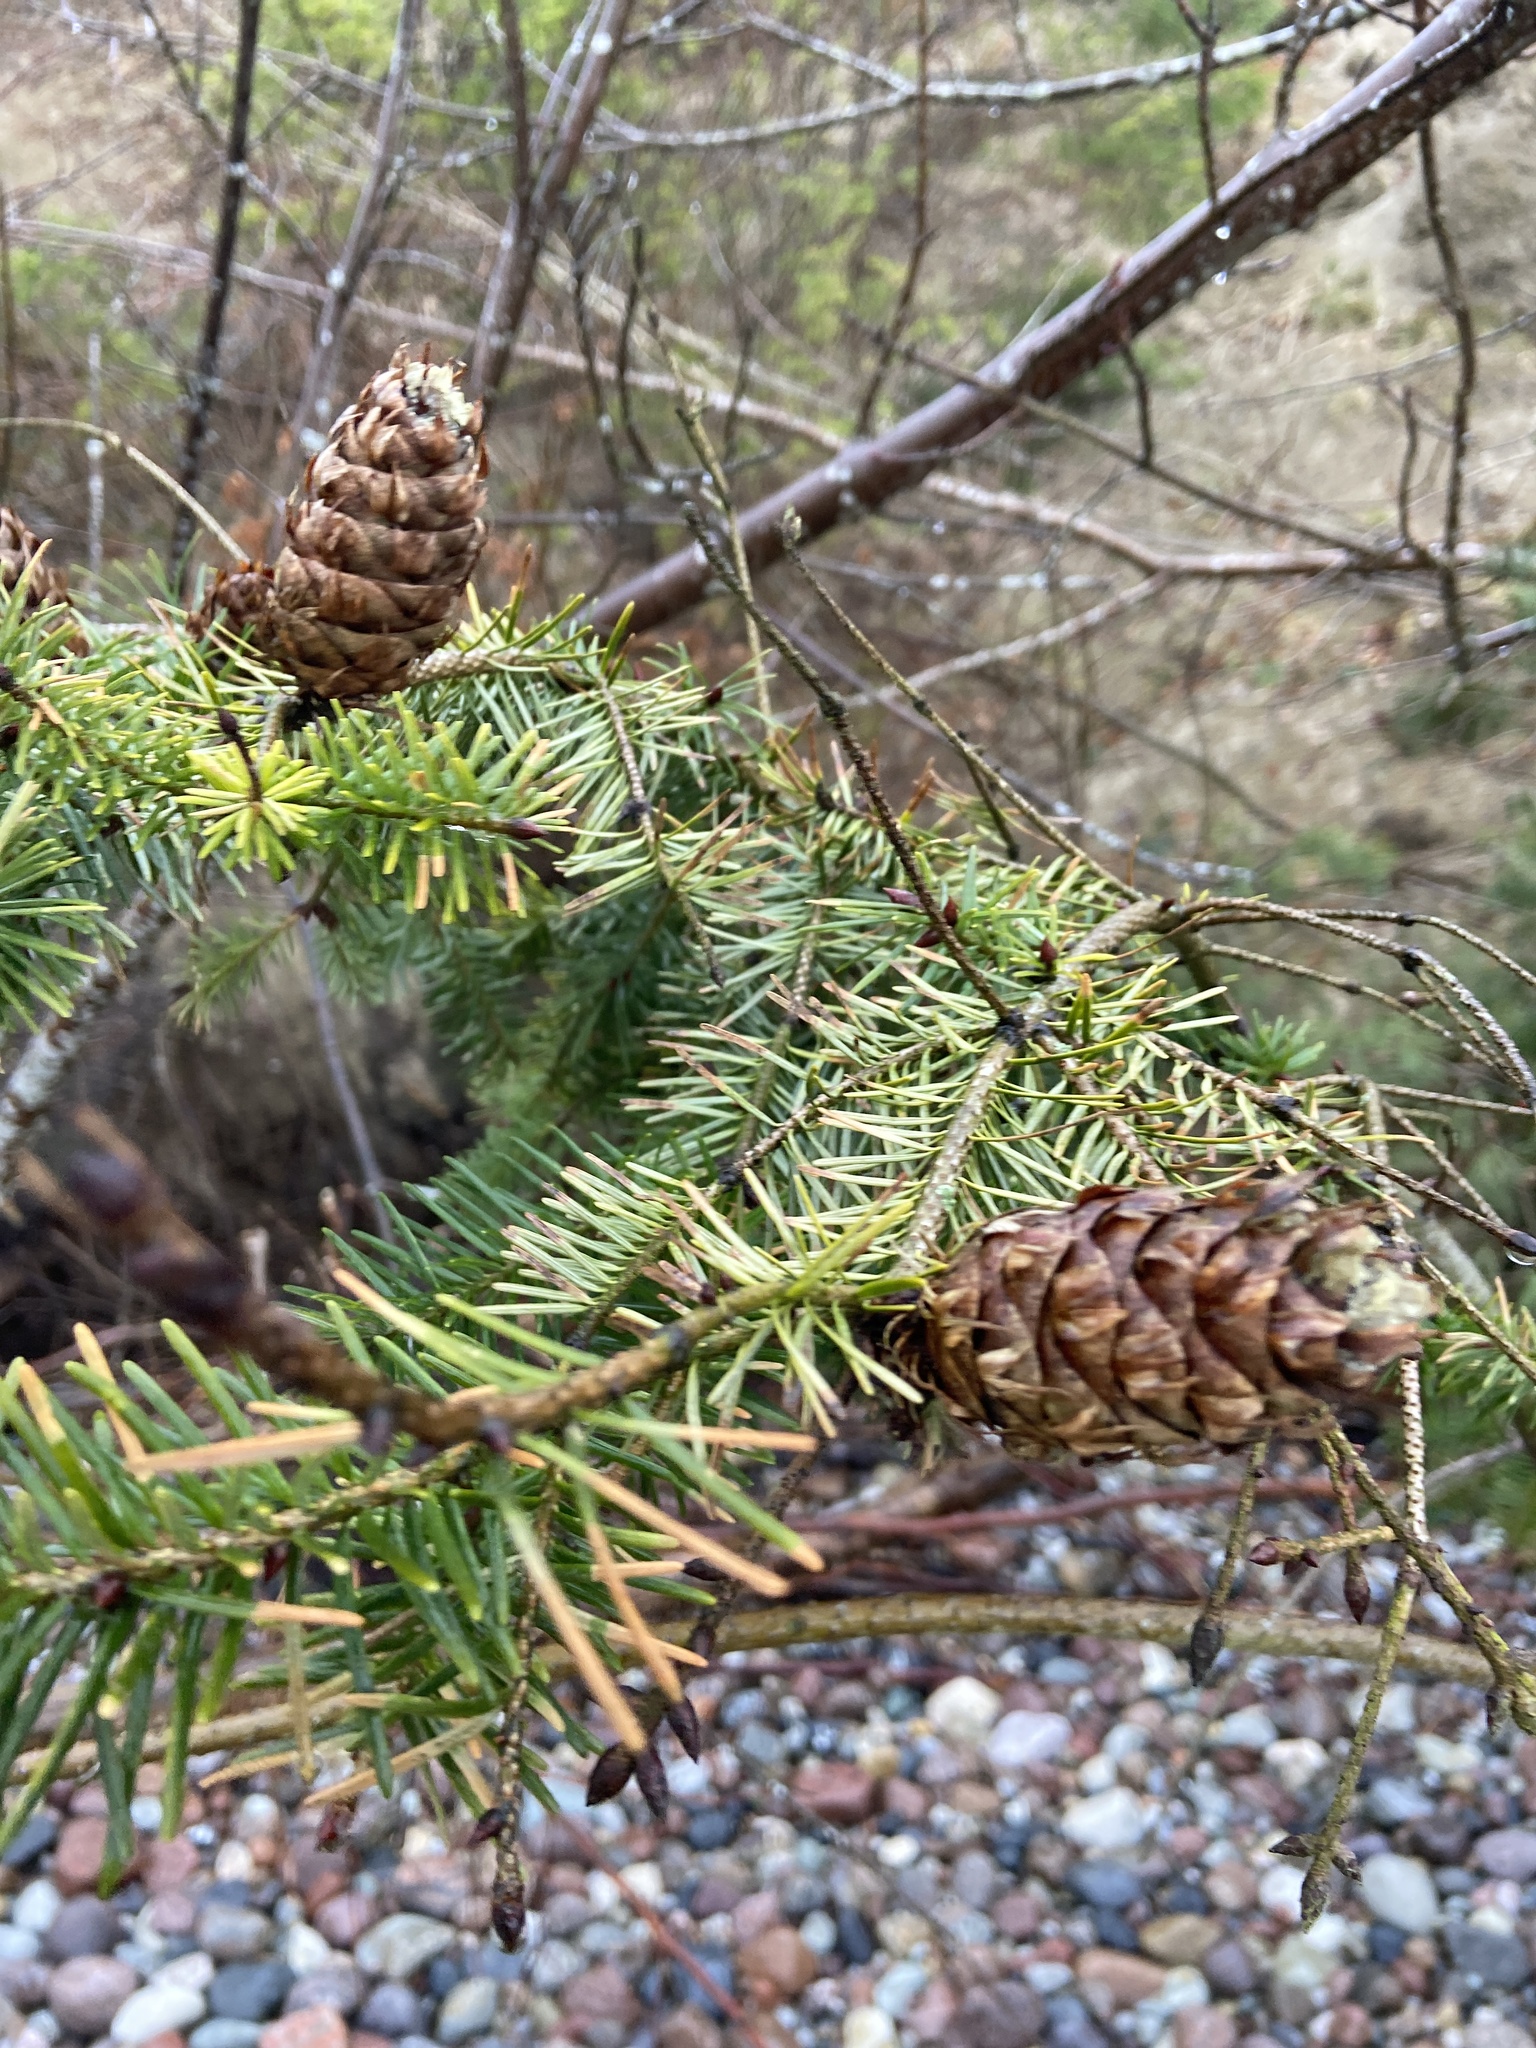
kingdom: Plantae
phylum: Tracheophyta
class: Pinopsida
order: Pinales
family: Pinaceae
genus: Pseudotsuga
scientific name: Pseudotsuga menziesii
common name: Douglas fir
